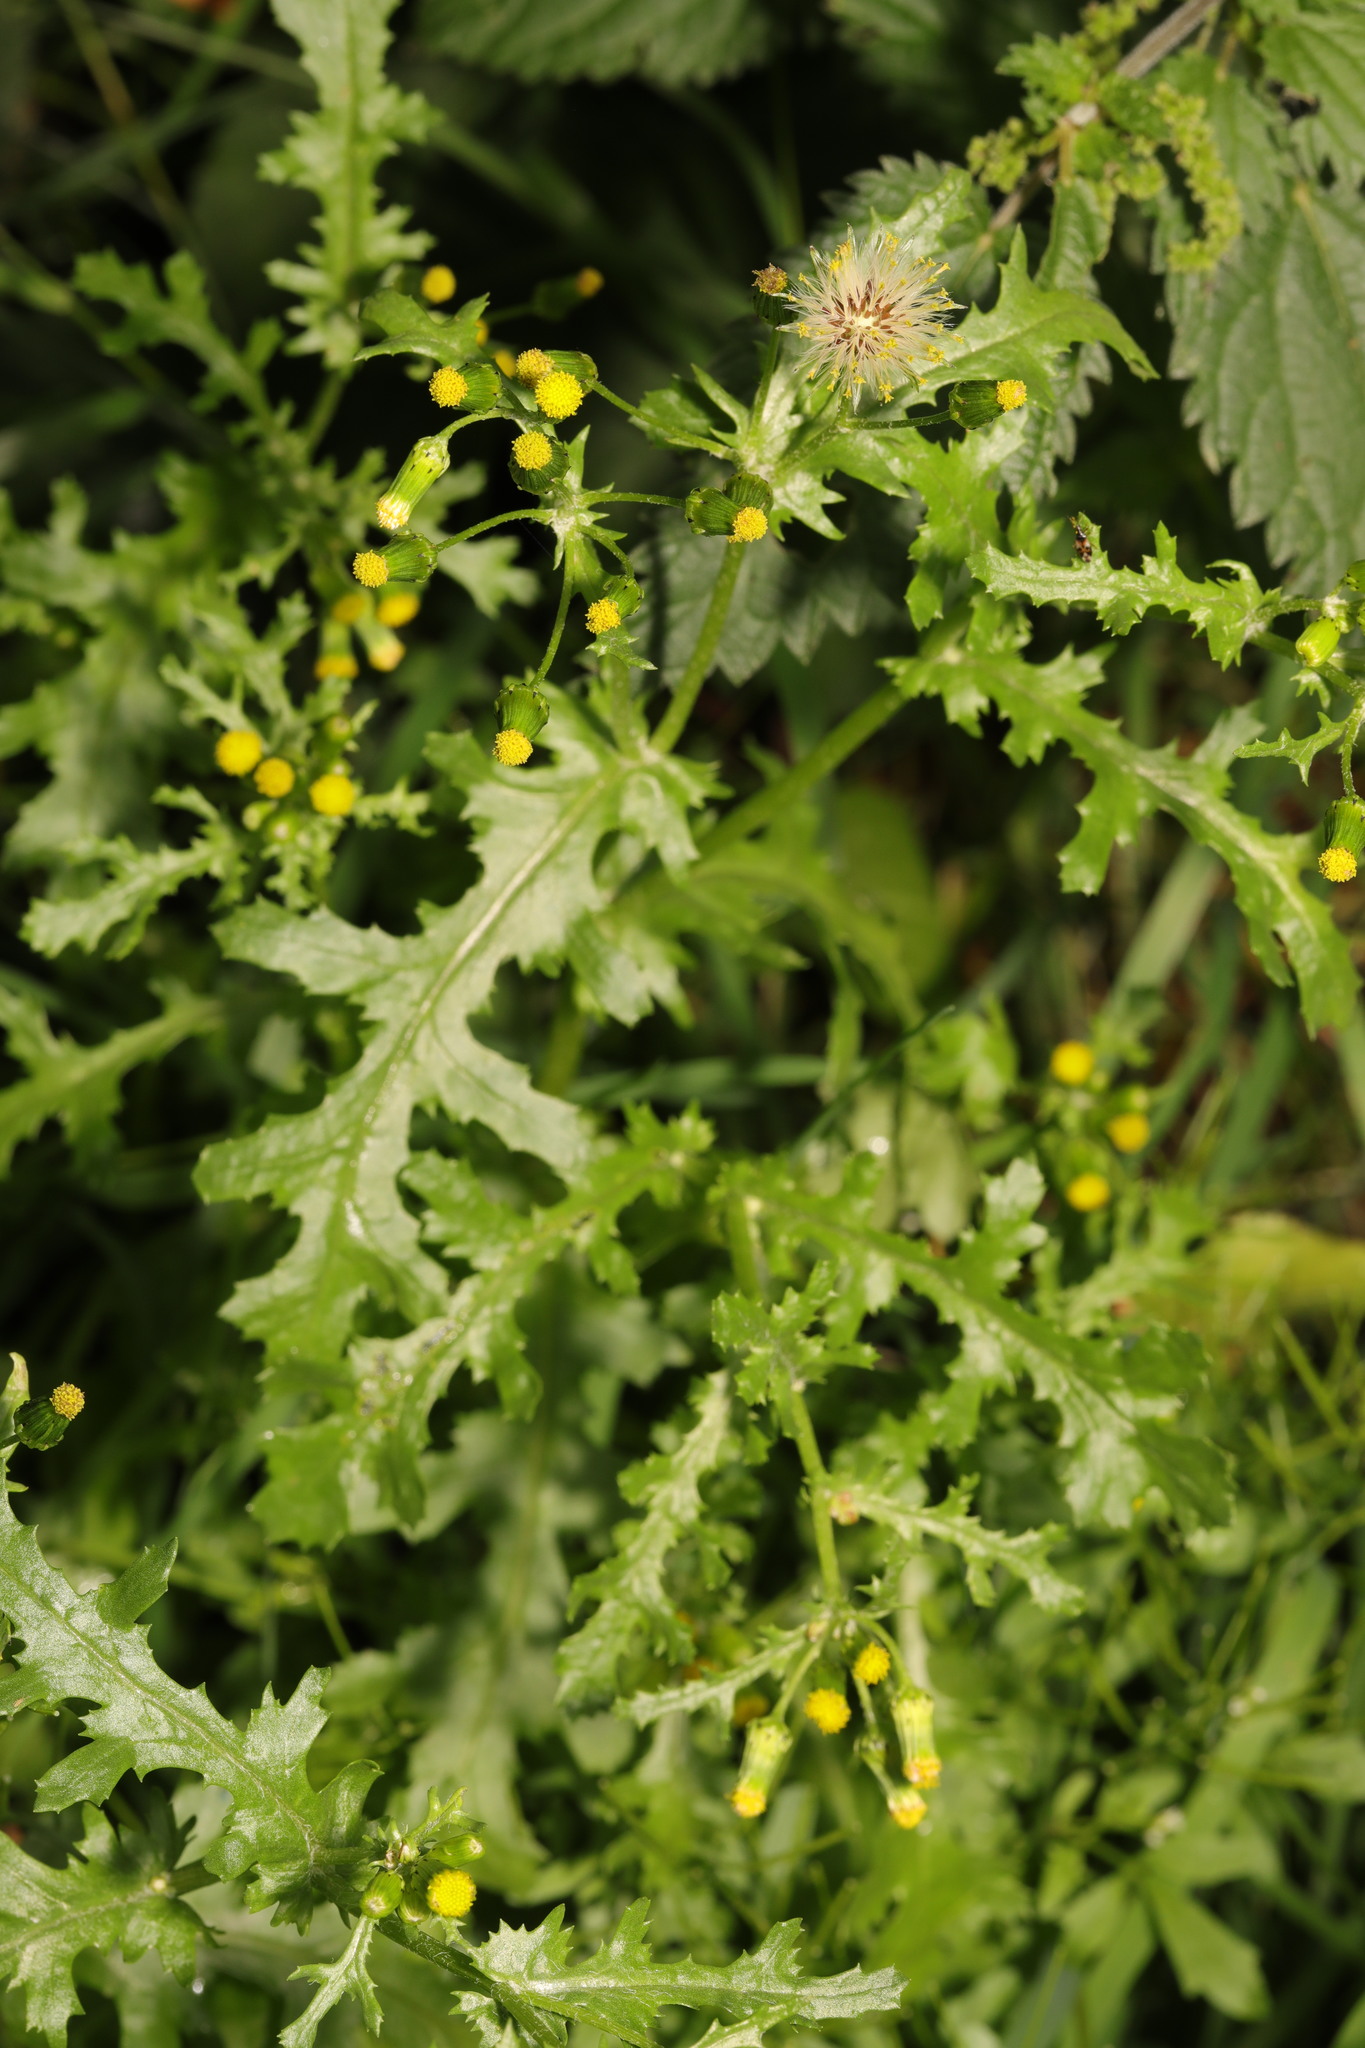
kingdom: Plantae
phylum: Tracheophyta
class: Magnoliopsida
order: Asterales
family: Asteraceae
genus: Senecio
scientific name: Senecio vulgaris
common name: Old-man-in-the-spring
